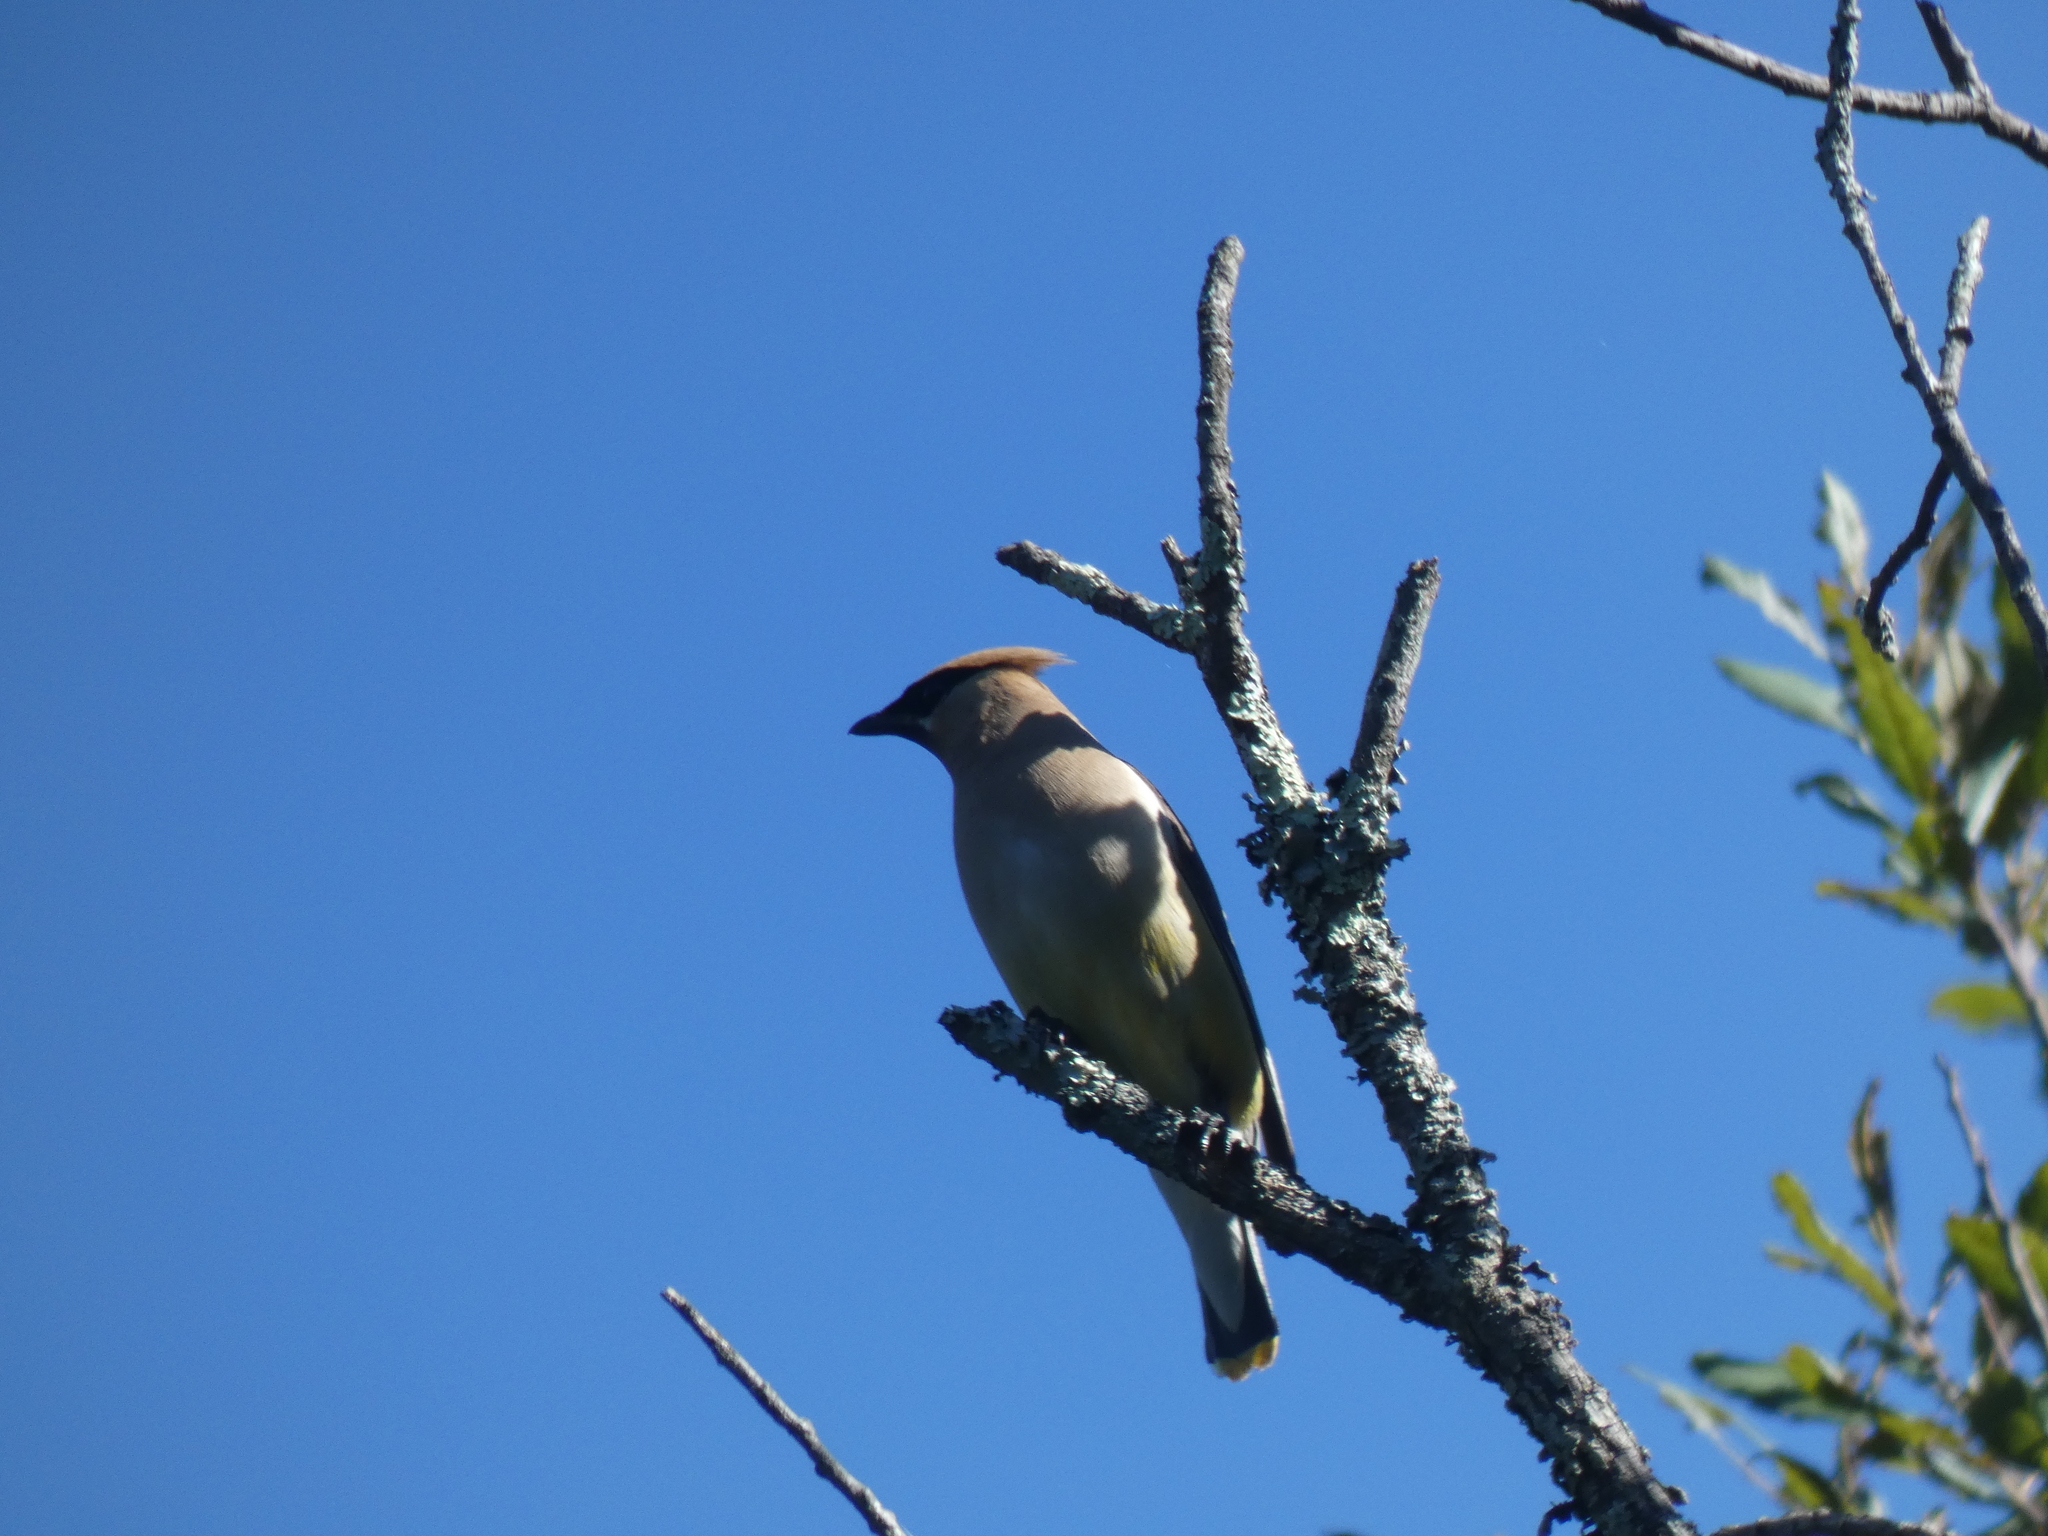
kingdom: Animalia
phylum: Chordata
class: Aves
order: Passeriformes
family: Bombycillidae
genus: Bombycilla
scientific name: Bombycilla cedrorum
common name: Cedar waxwing
